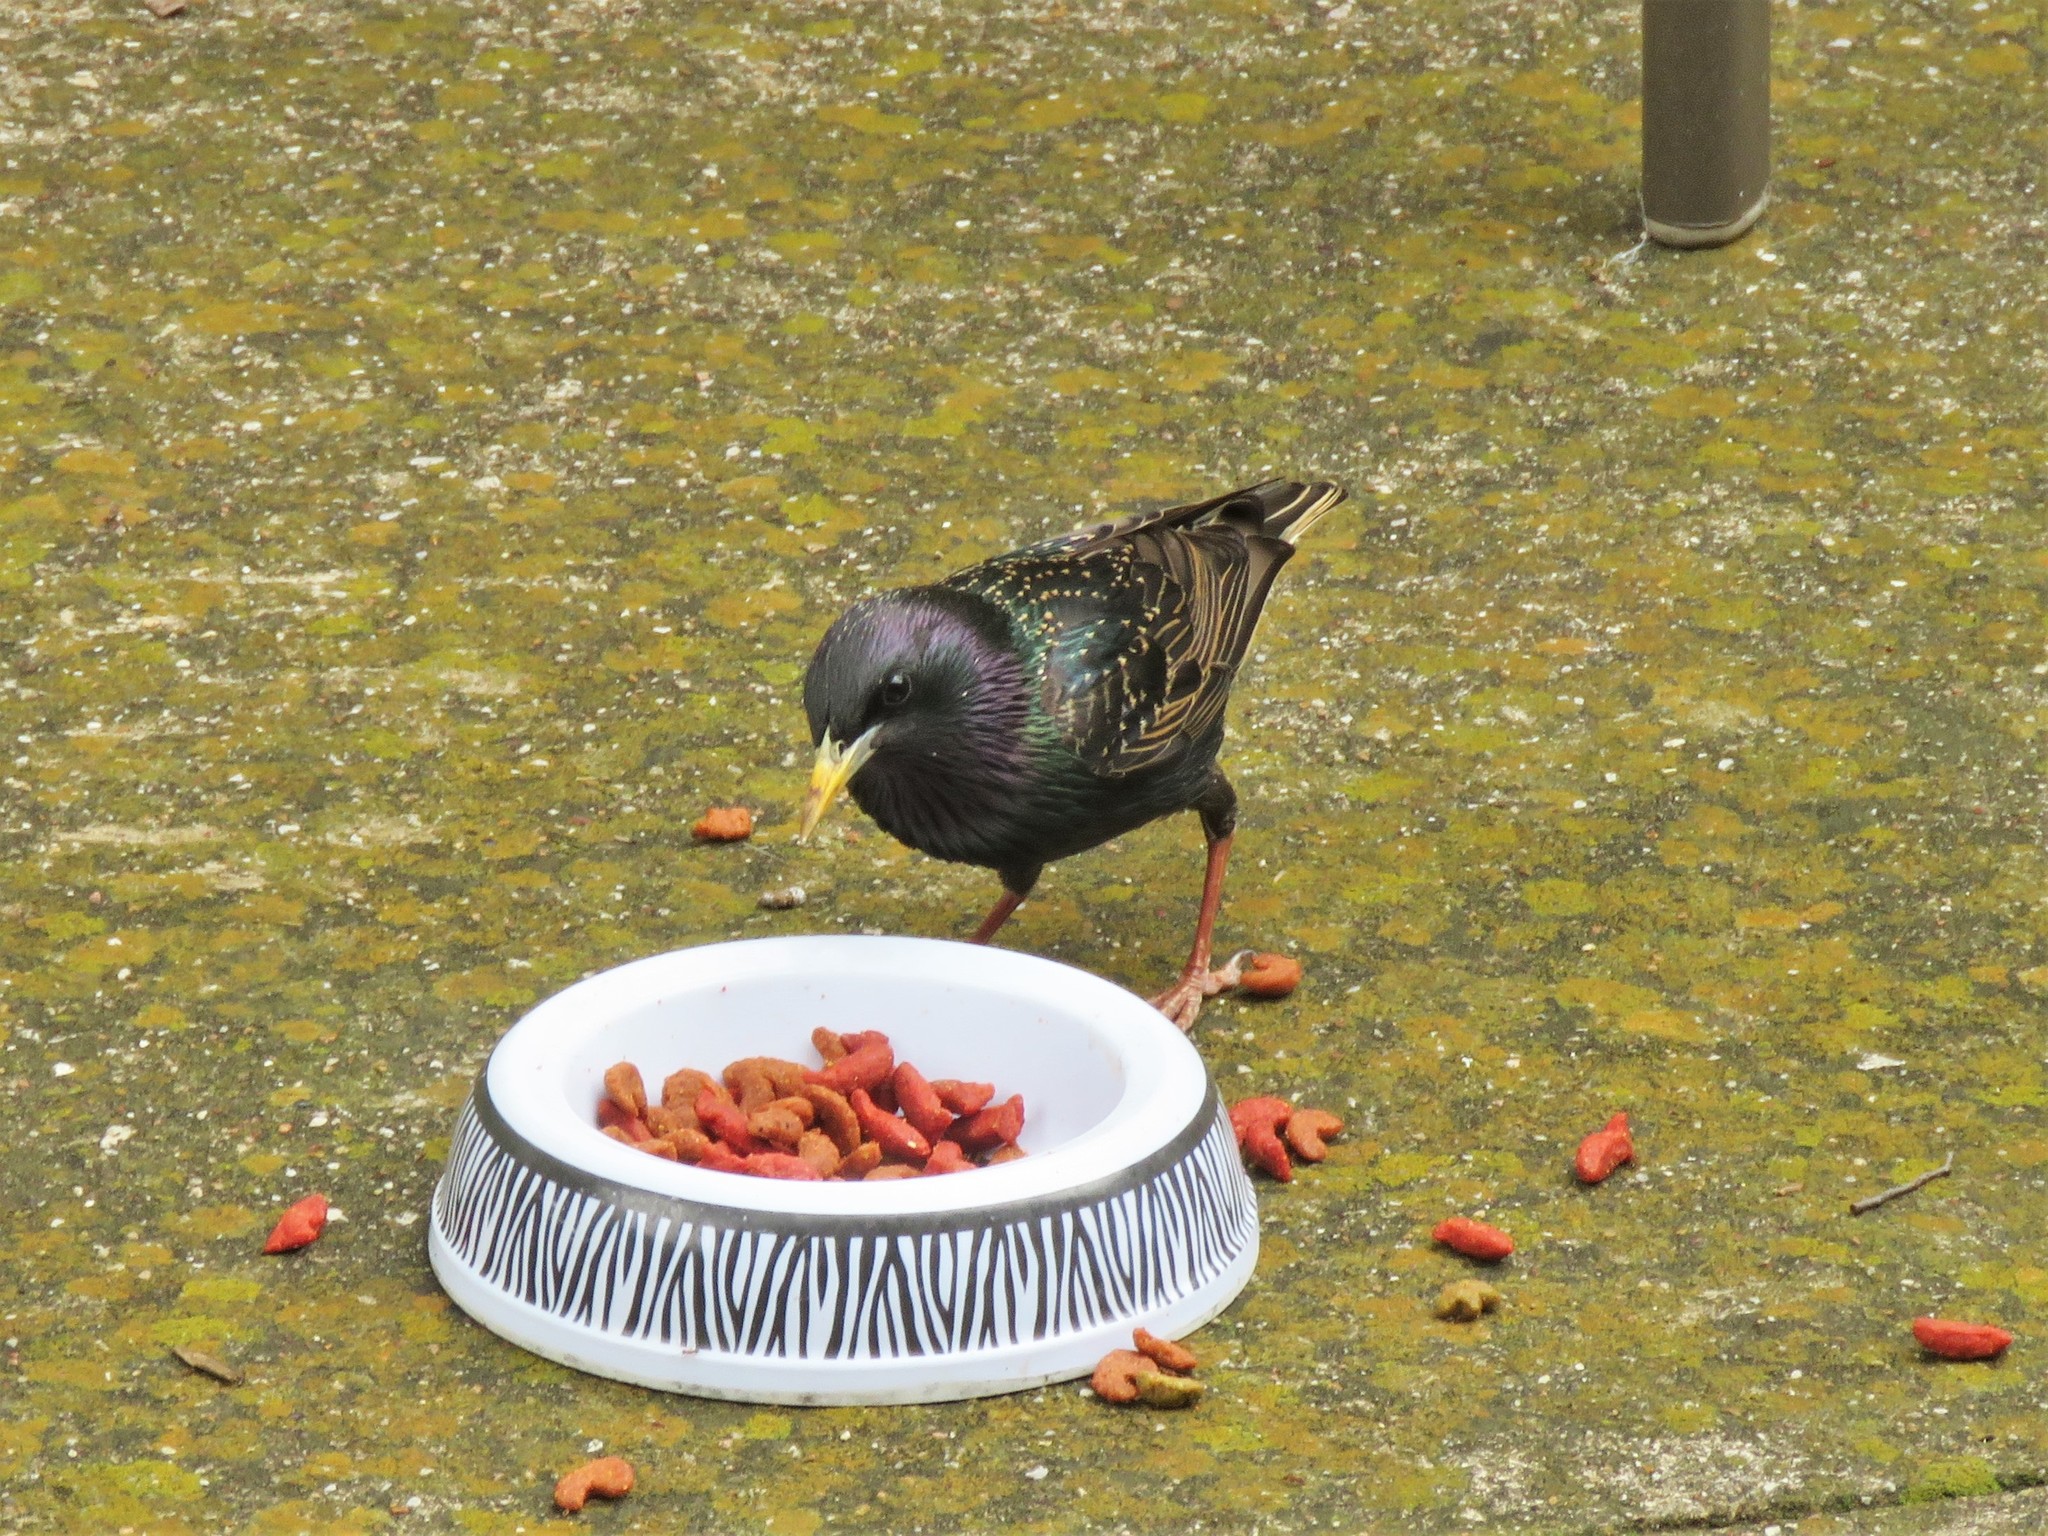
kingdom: Animalia
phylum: Chordata
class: Aves
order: Passeriformes
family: Sturnidae
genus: Sturnus
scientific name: Sturnus vulgaris
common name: Common starling
